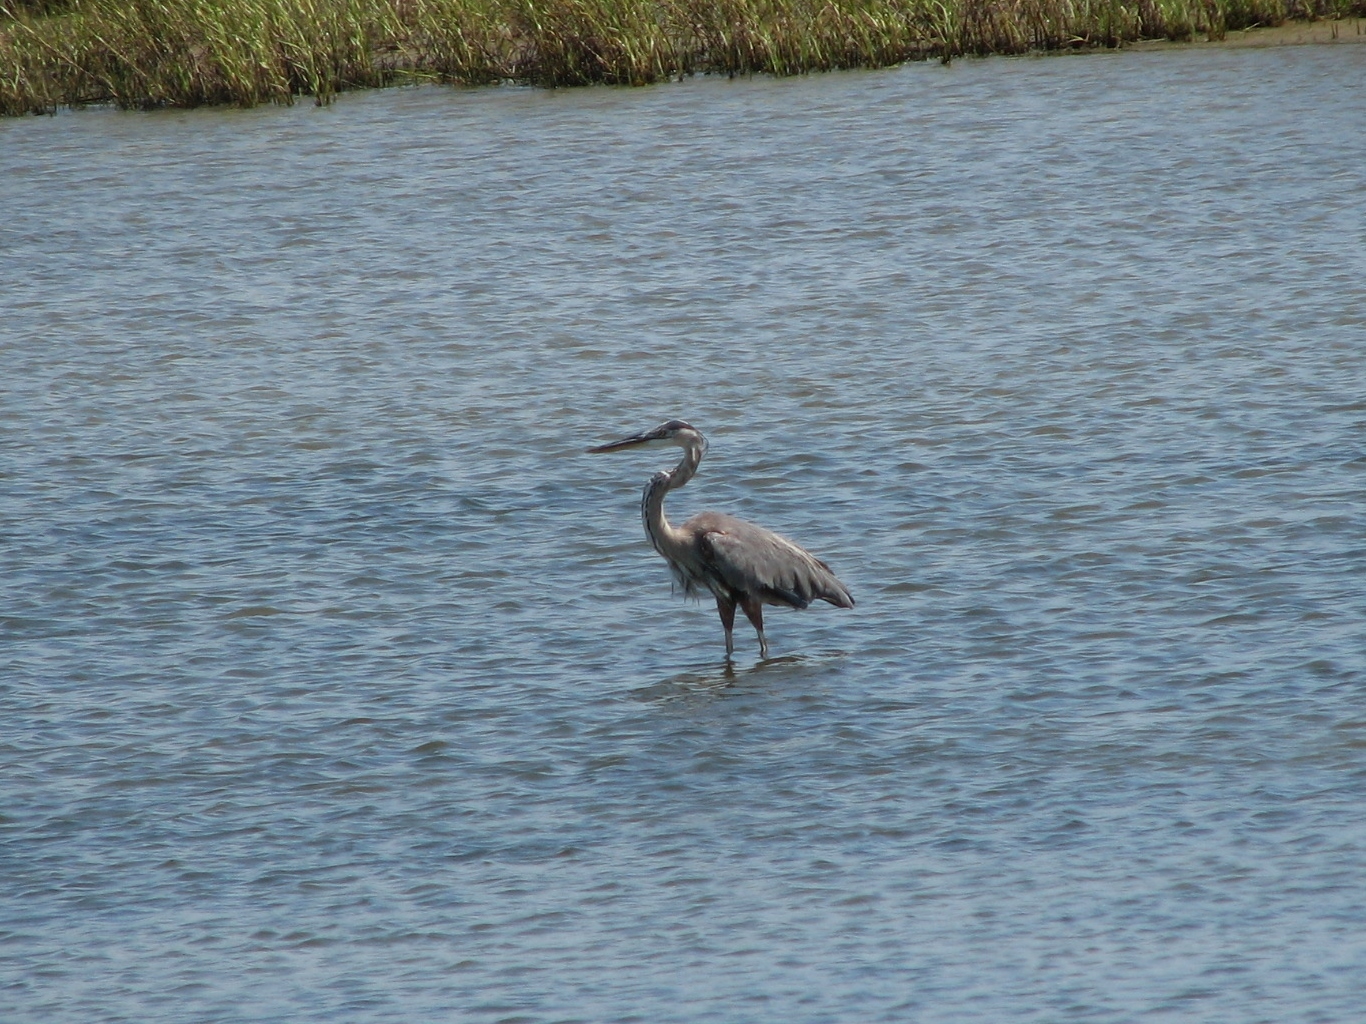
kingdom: Animalia
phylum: Chordata
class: Aves
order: Pelecaniformes
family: Ardeidae
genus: Ardea
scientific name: Ardea herodias
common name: Great blue heron
